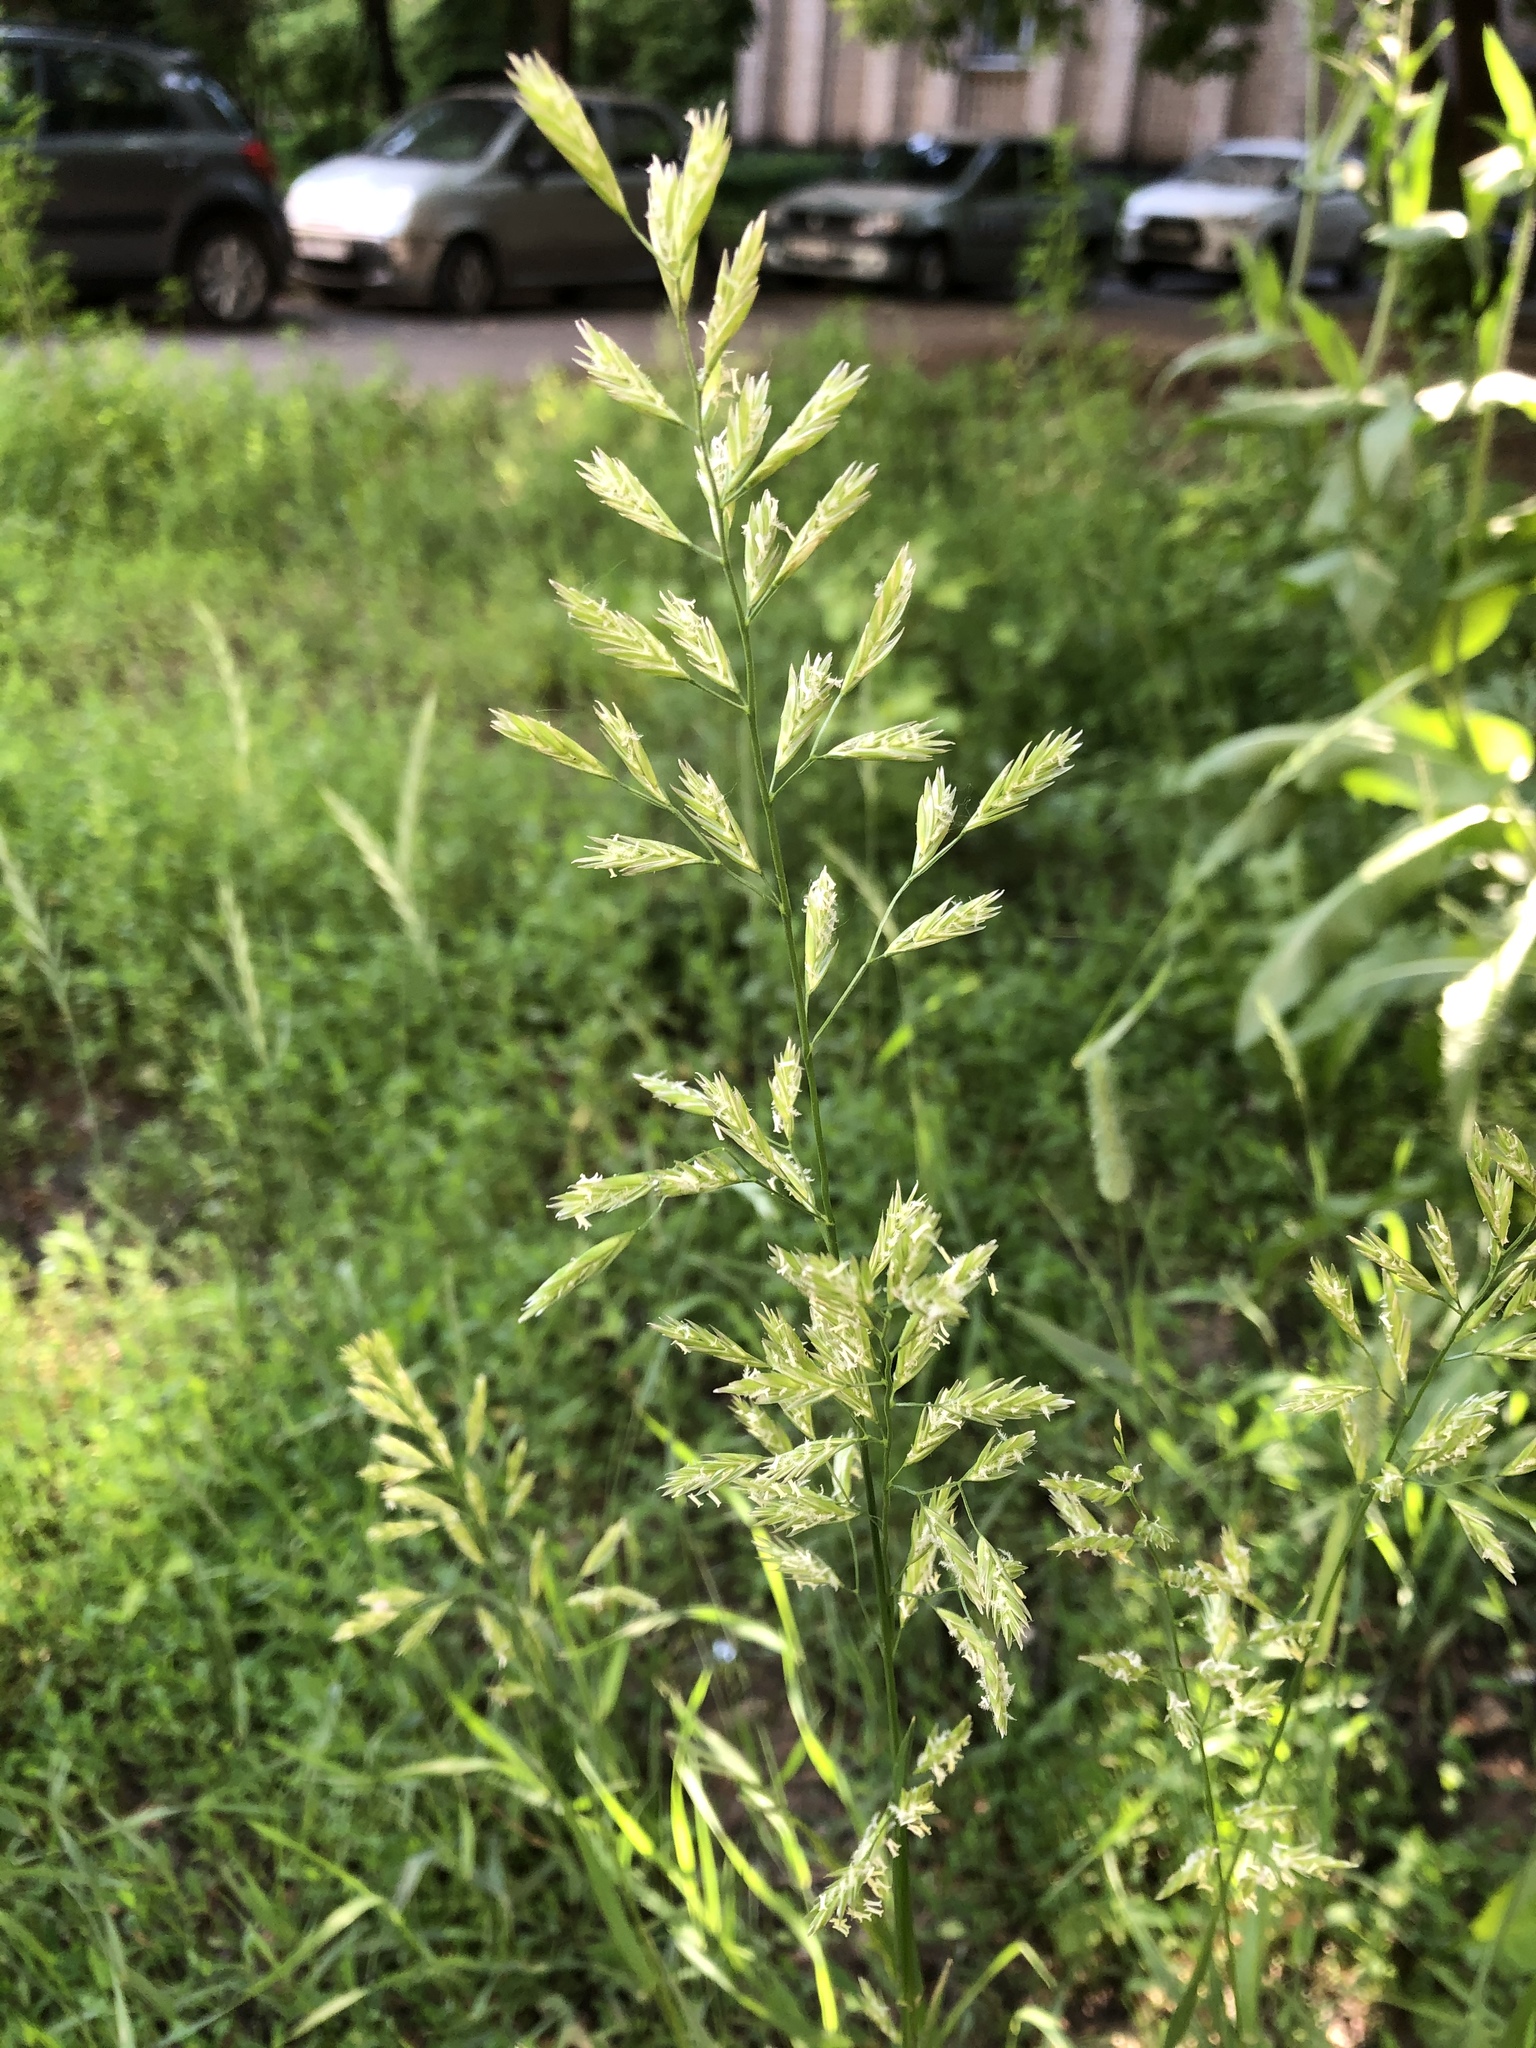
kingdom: Plantae
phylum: Tracheophyta
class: Liliopsida
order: Poales
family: Poaceae
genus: Lolium
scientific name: Lolium pratense
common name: Dover grass
